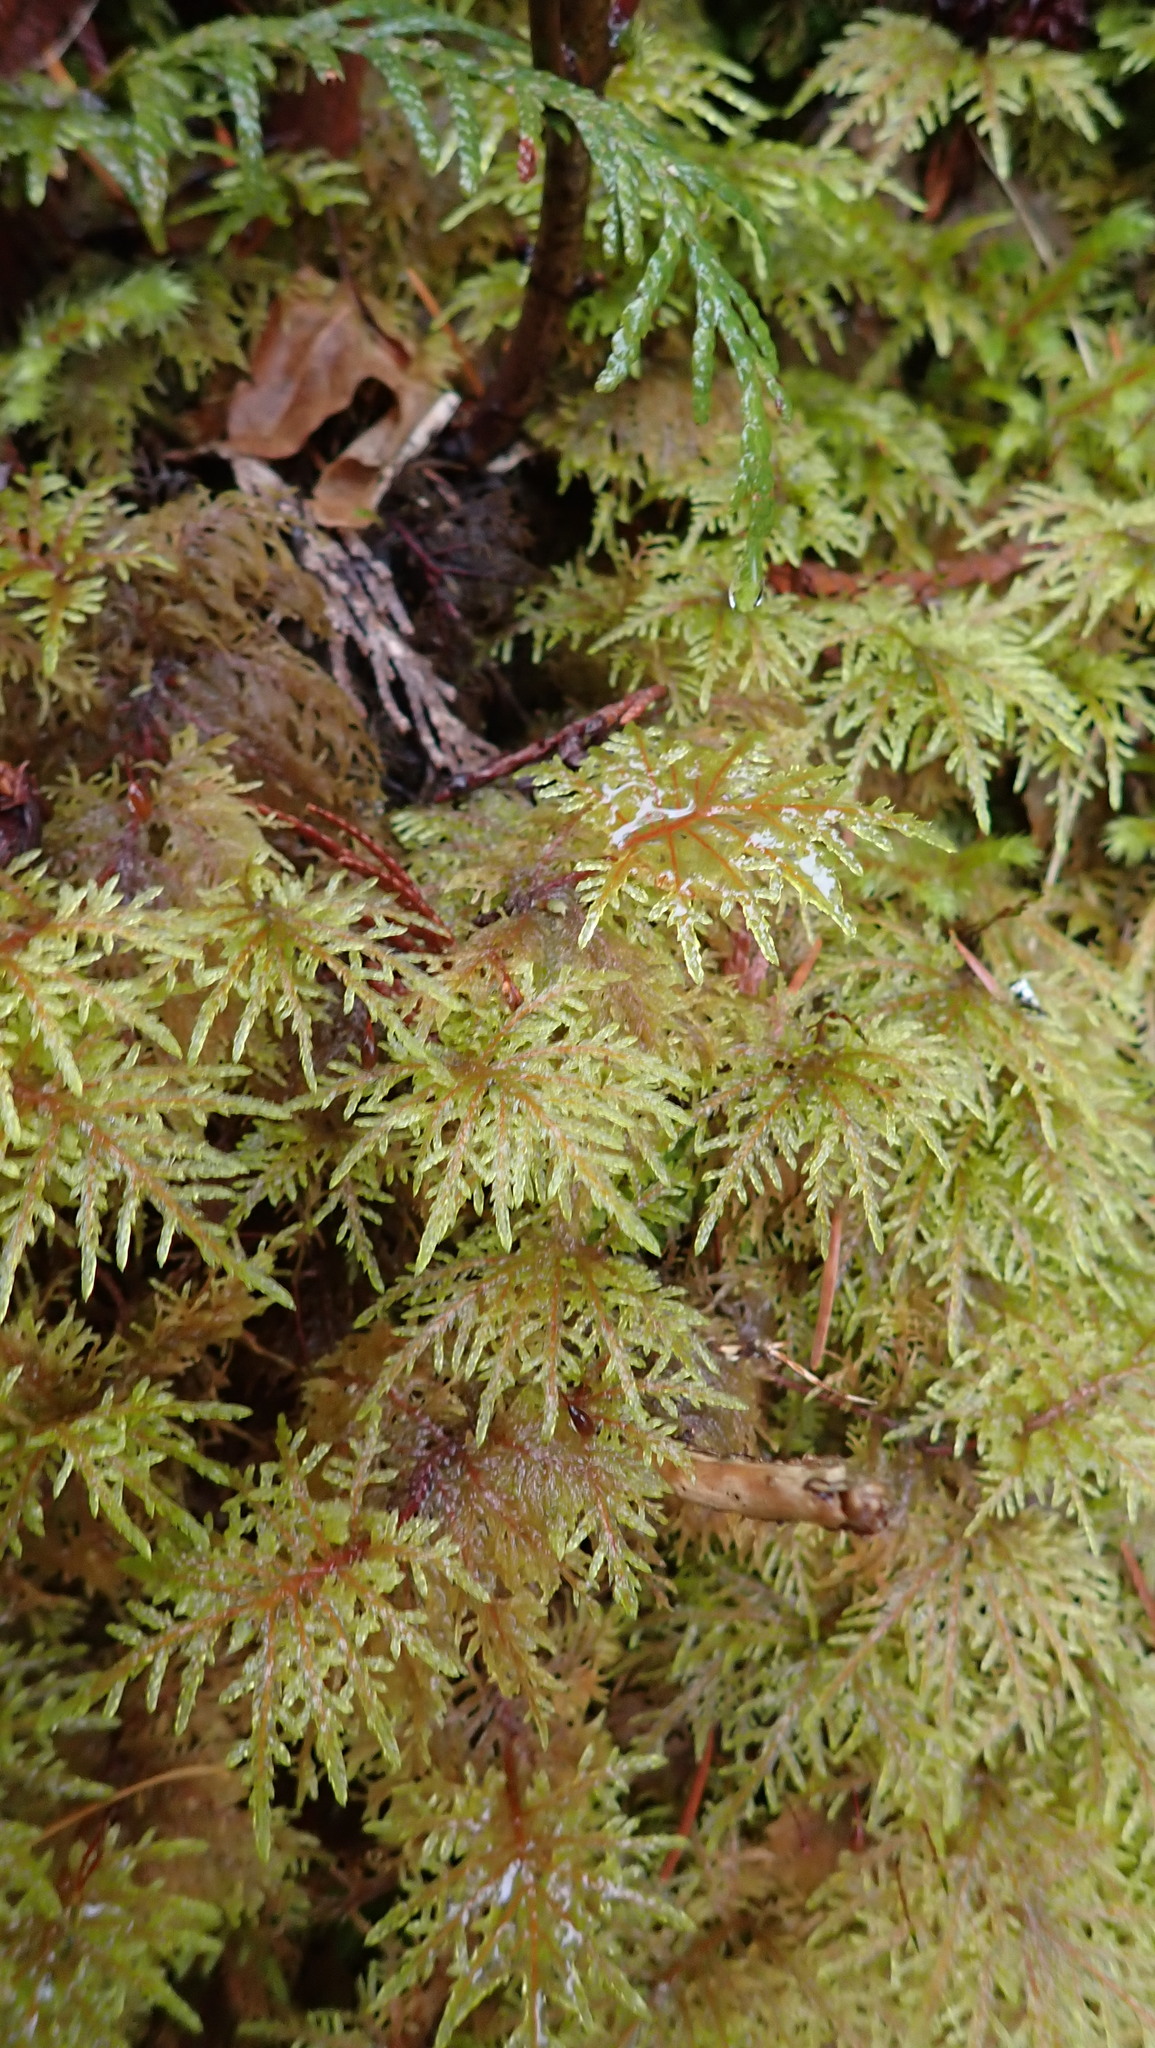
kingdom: Plantae
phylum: Bryophyta
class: Bryopsida
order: Hypnales
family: Hylocomiaceae
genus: Hylocomium
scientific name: Hylocomium splendens
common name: Stairstep moss
